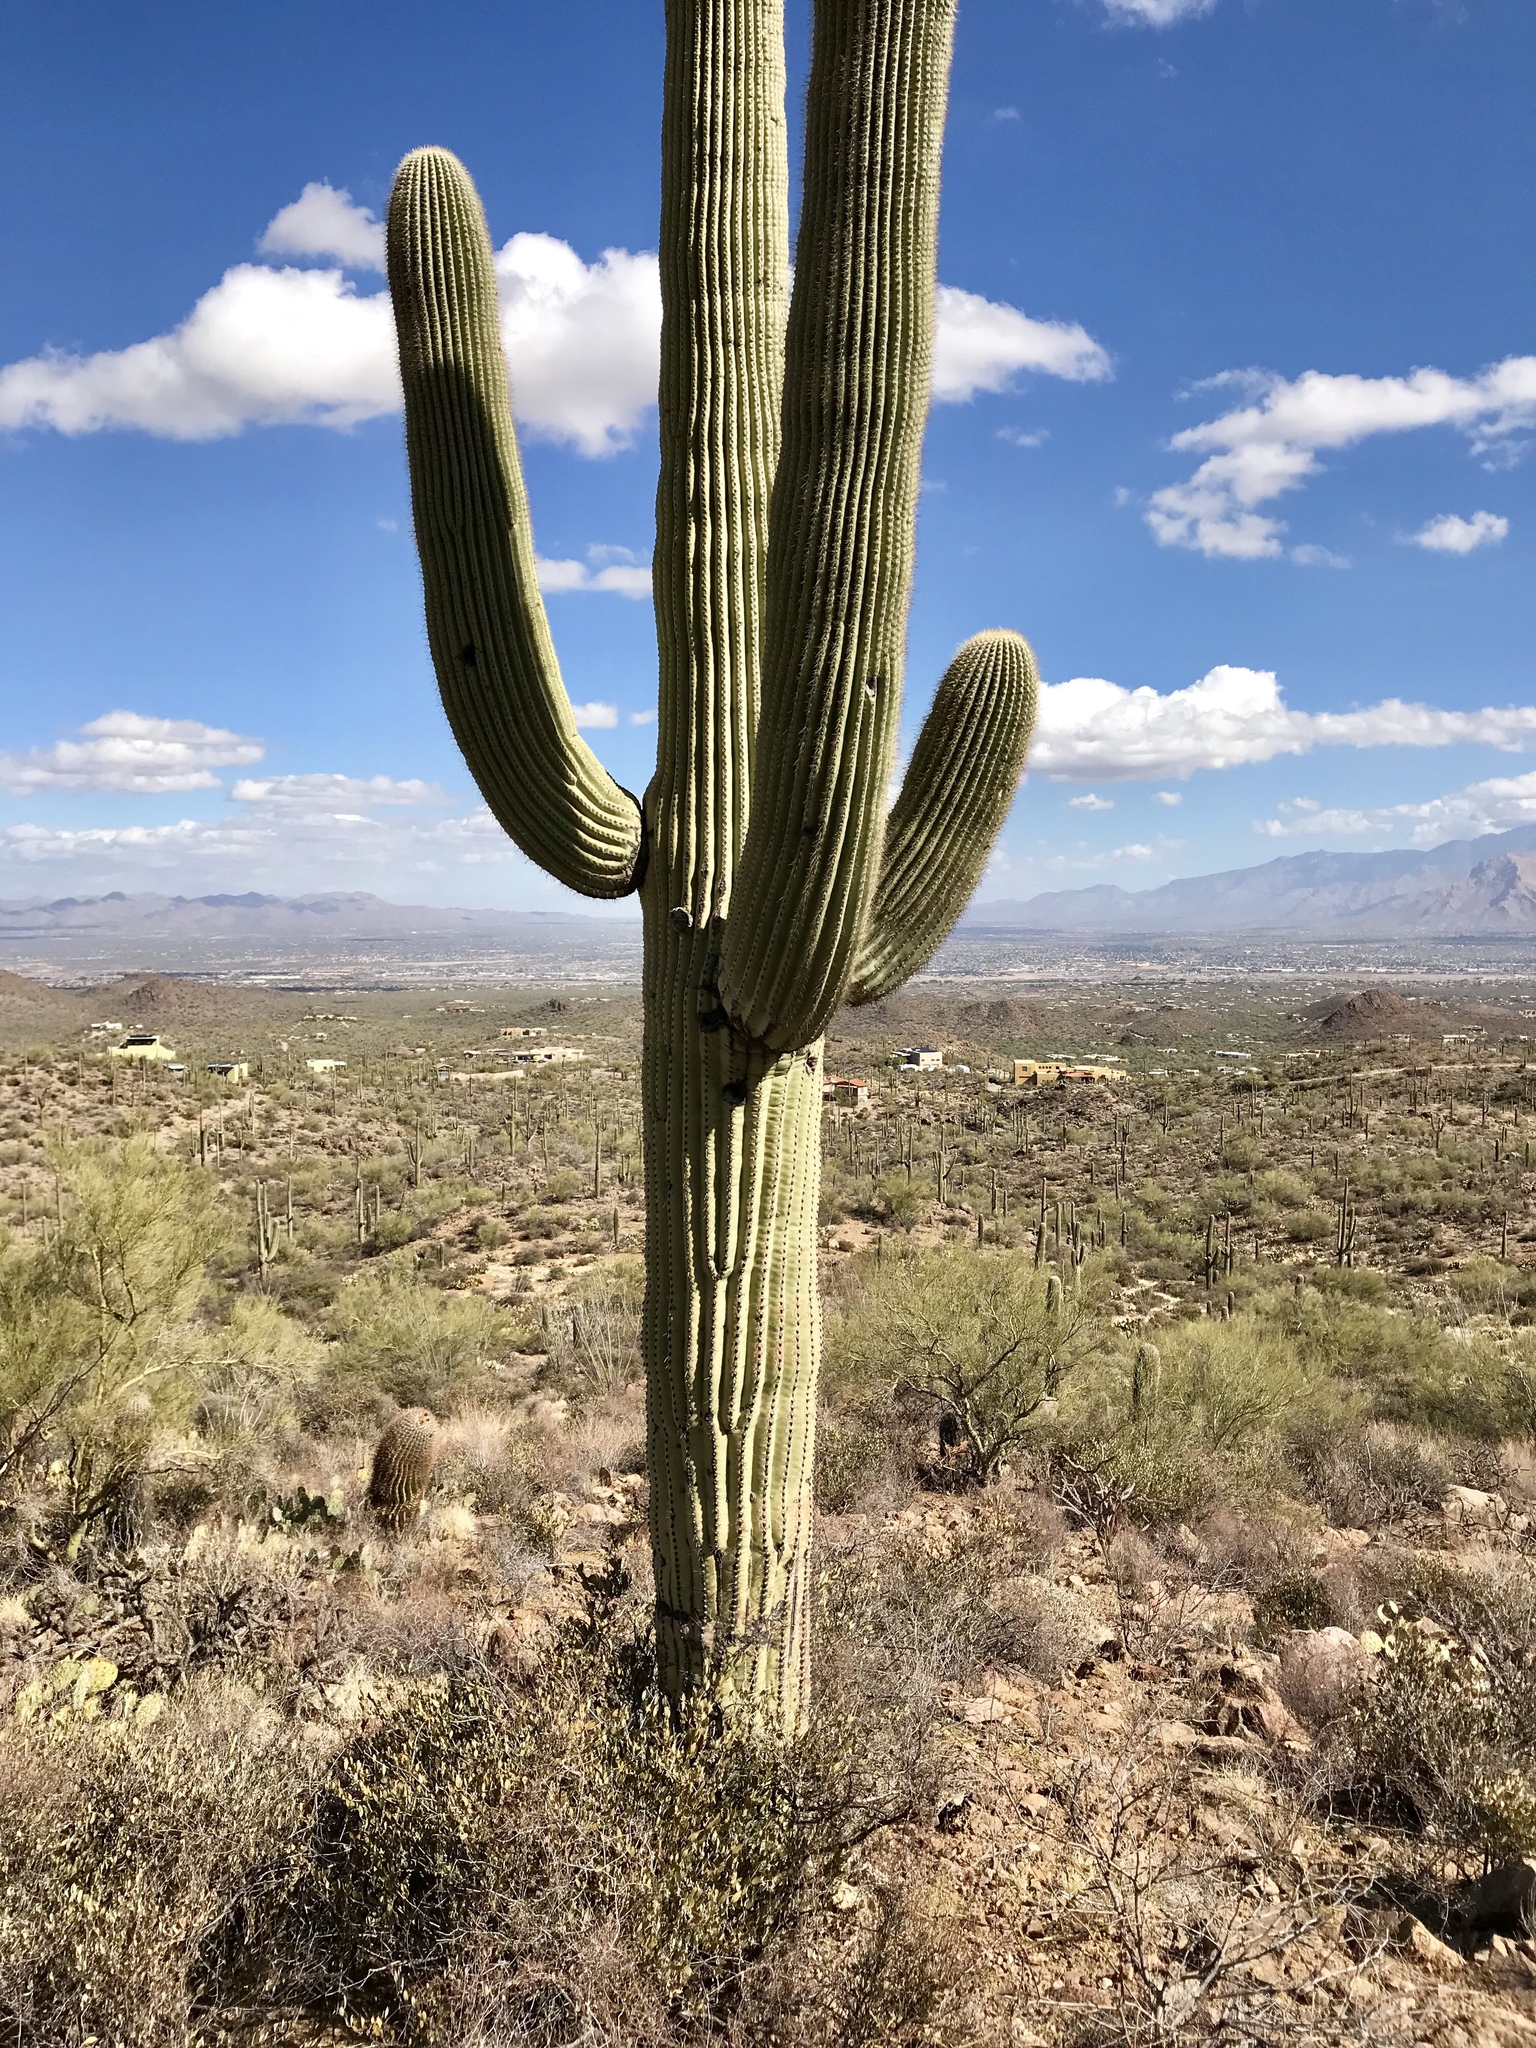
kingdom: Plantae
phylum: Tracheophyta
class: Magnoliopsida
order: Caryophyllales
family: Cactaceae
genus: Carnegiea
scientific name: Carnegiea gigantea
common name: Saguaro
